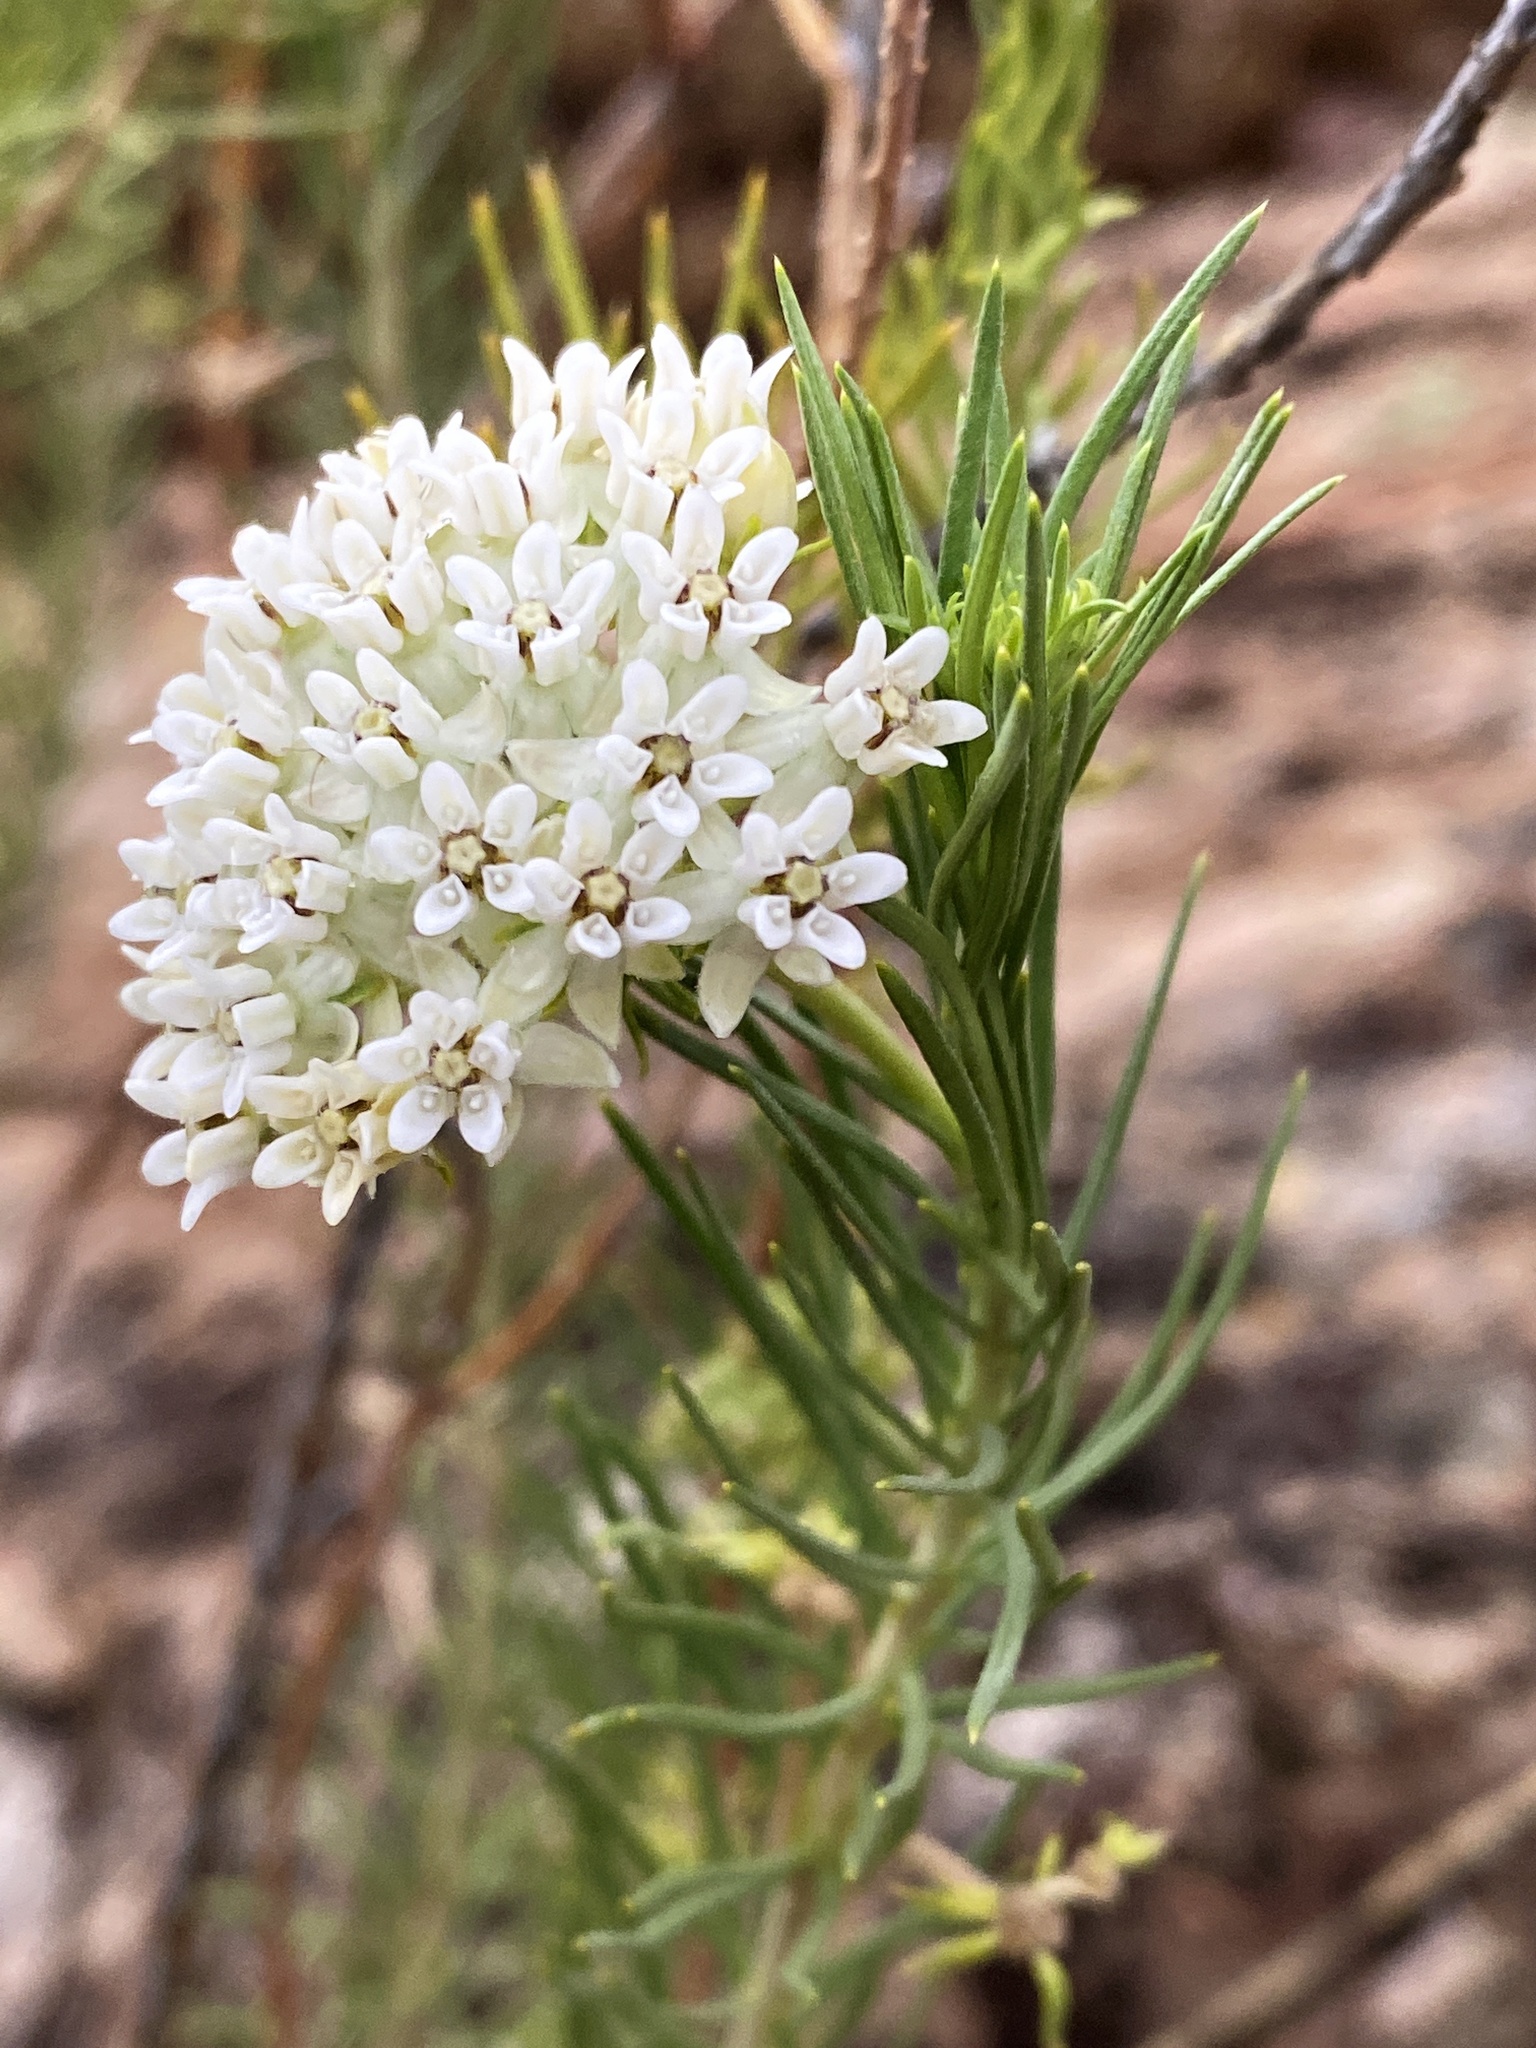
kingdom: Plantae
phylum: Tracheophyta
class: Magnoliopsida
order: Gentianales
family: Apocynaceae
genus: Asclepias
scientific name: Asclepias linaria
